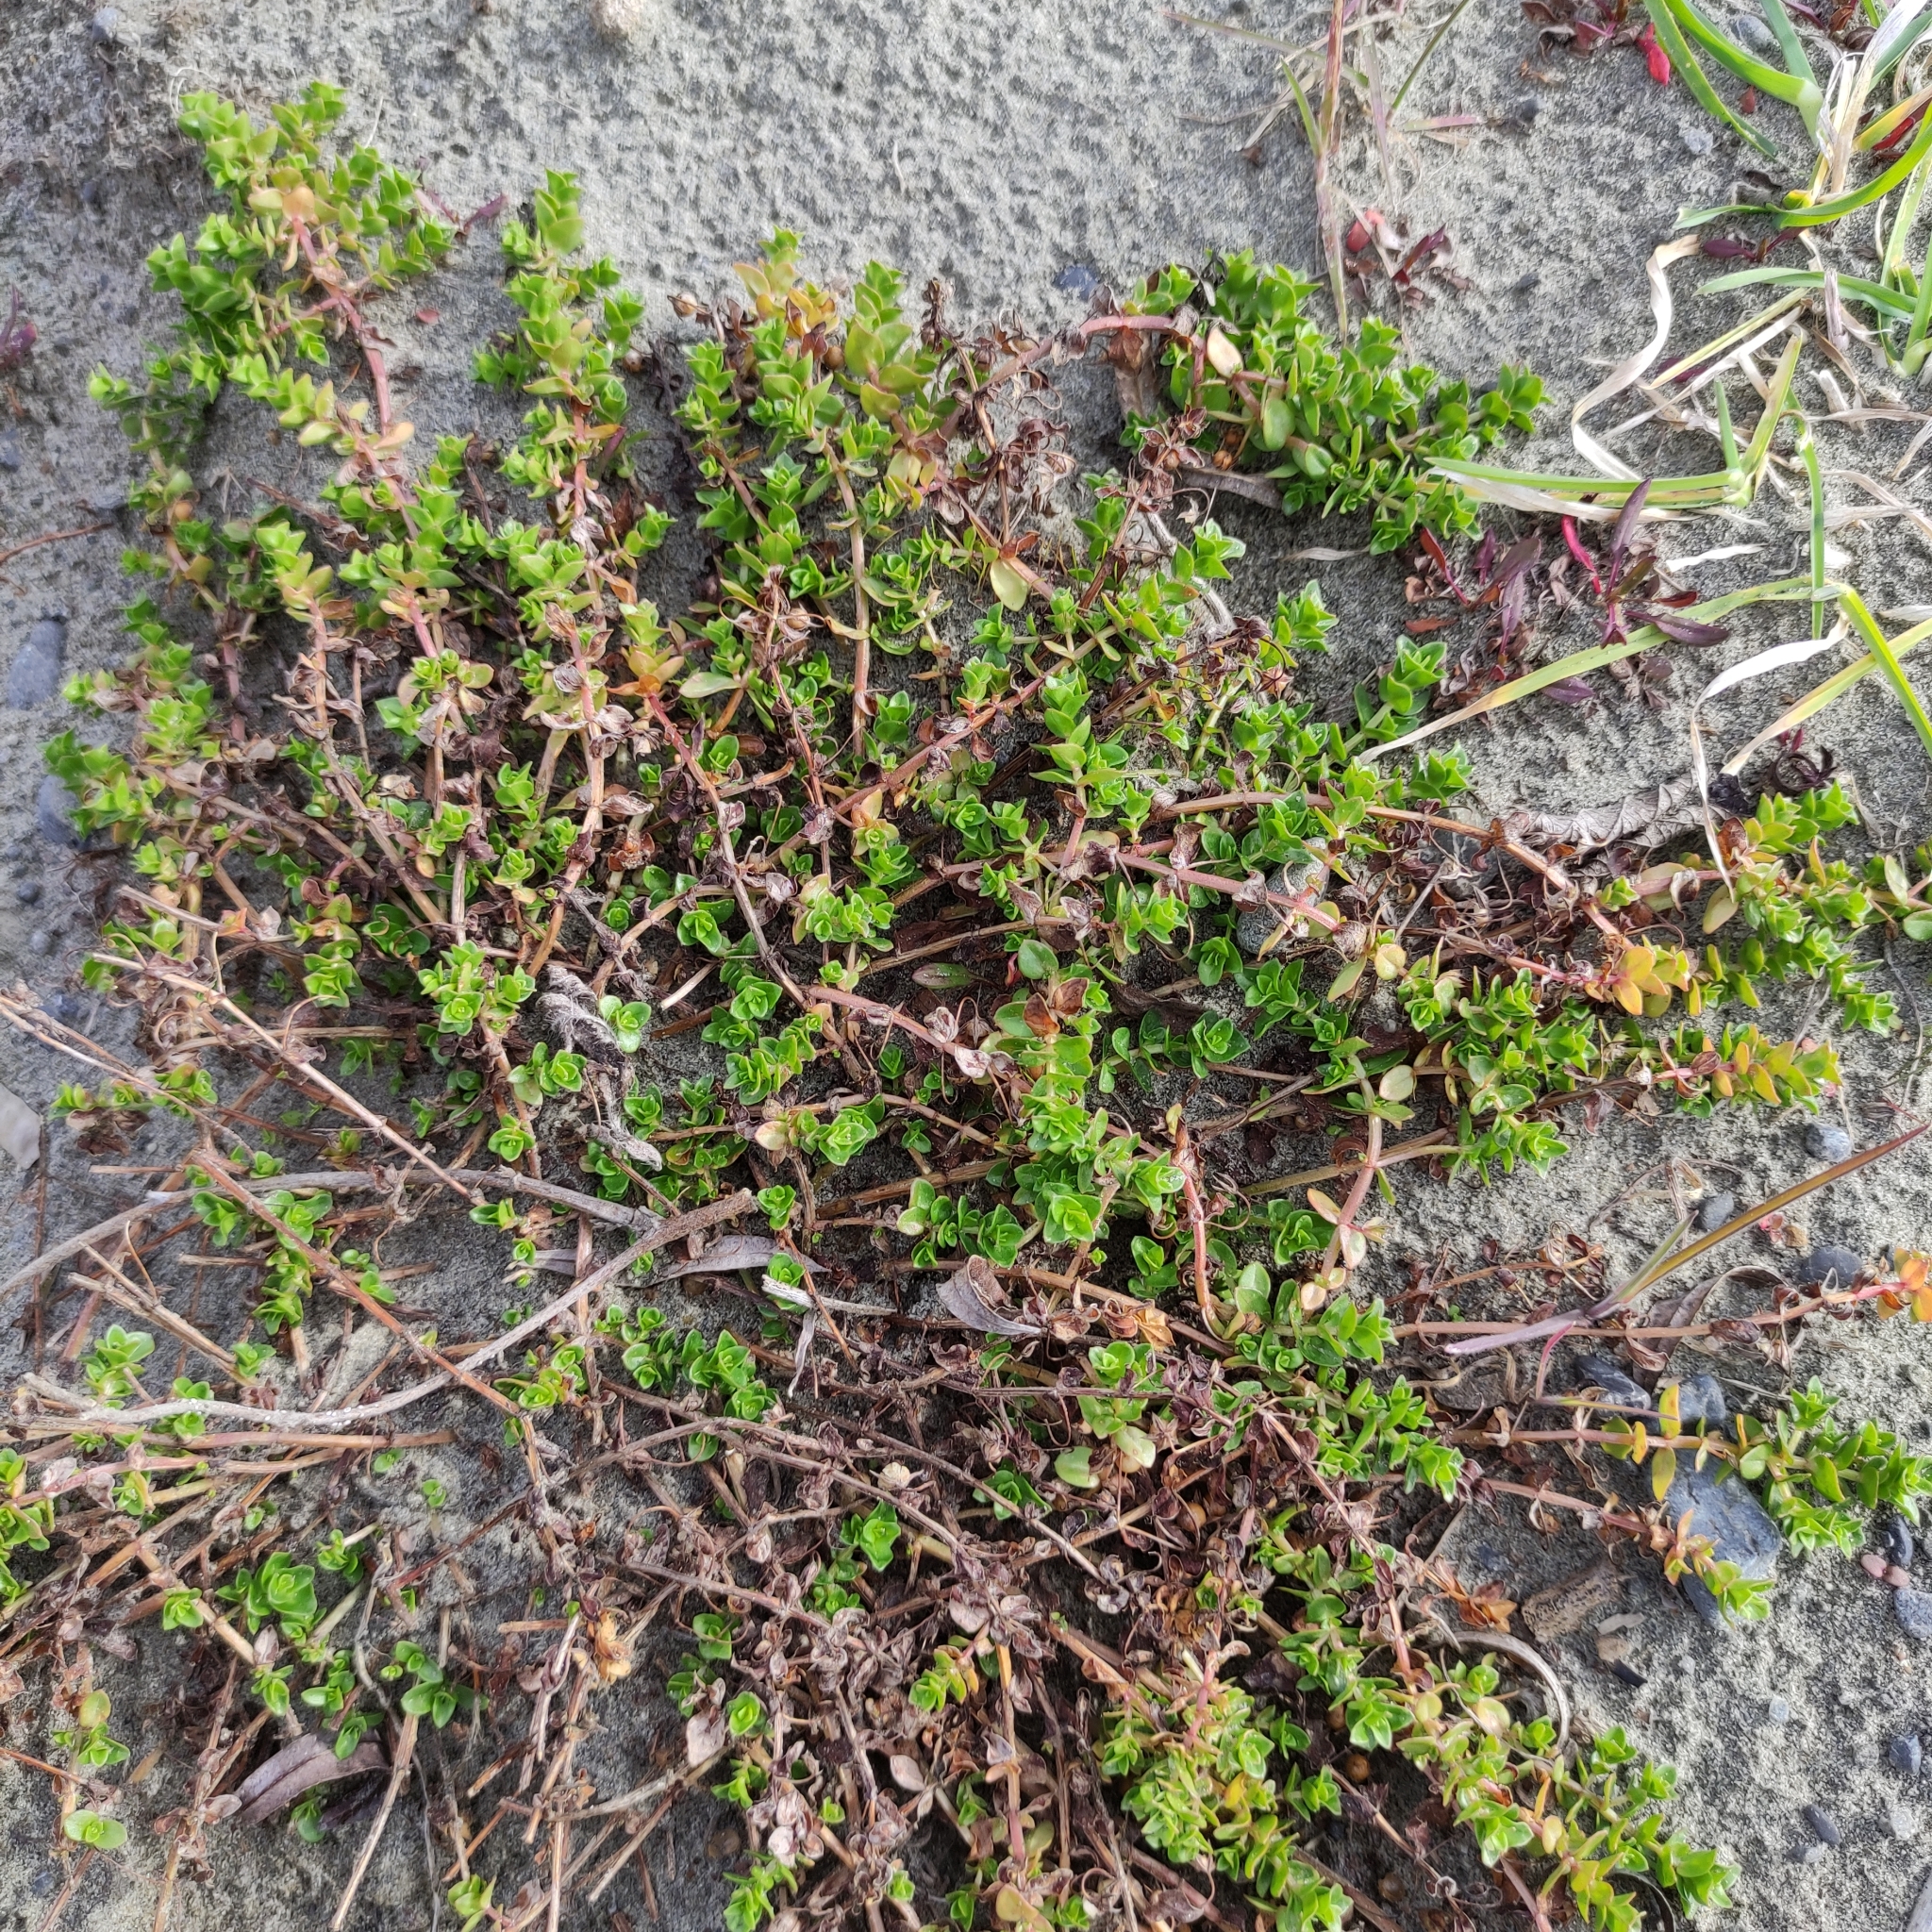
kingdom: Plantae
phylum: Tracheophyta
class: Magnoliopsida
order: Ericales
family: Primulaceae
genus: Lysimachia
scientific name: Lysimachia arvensis
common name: Scarlet pimpernel
